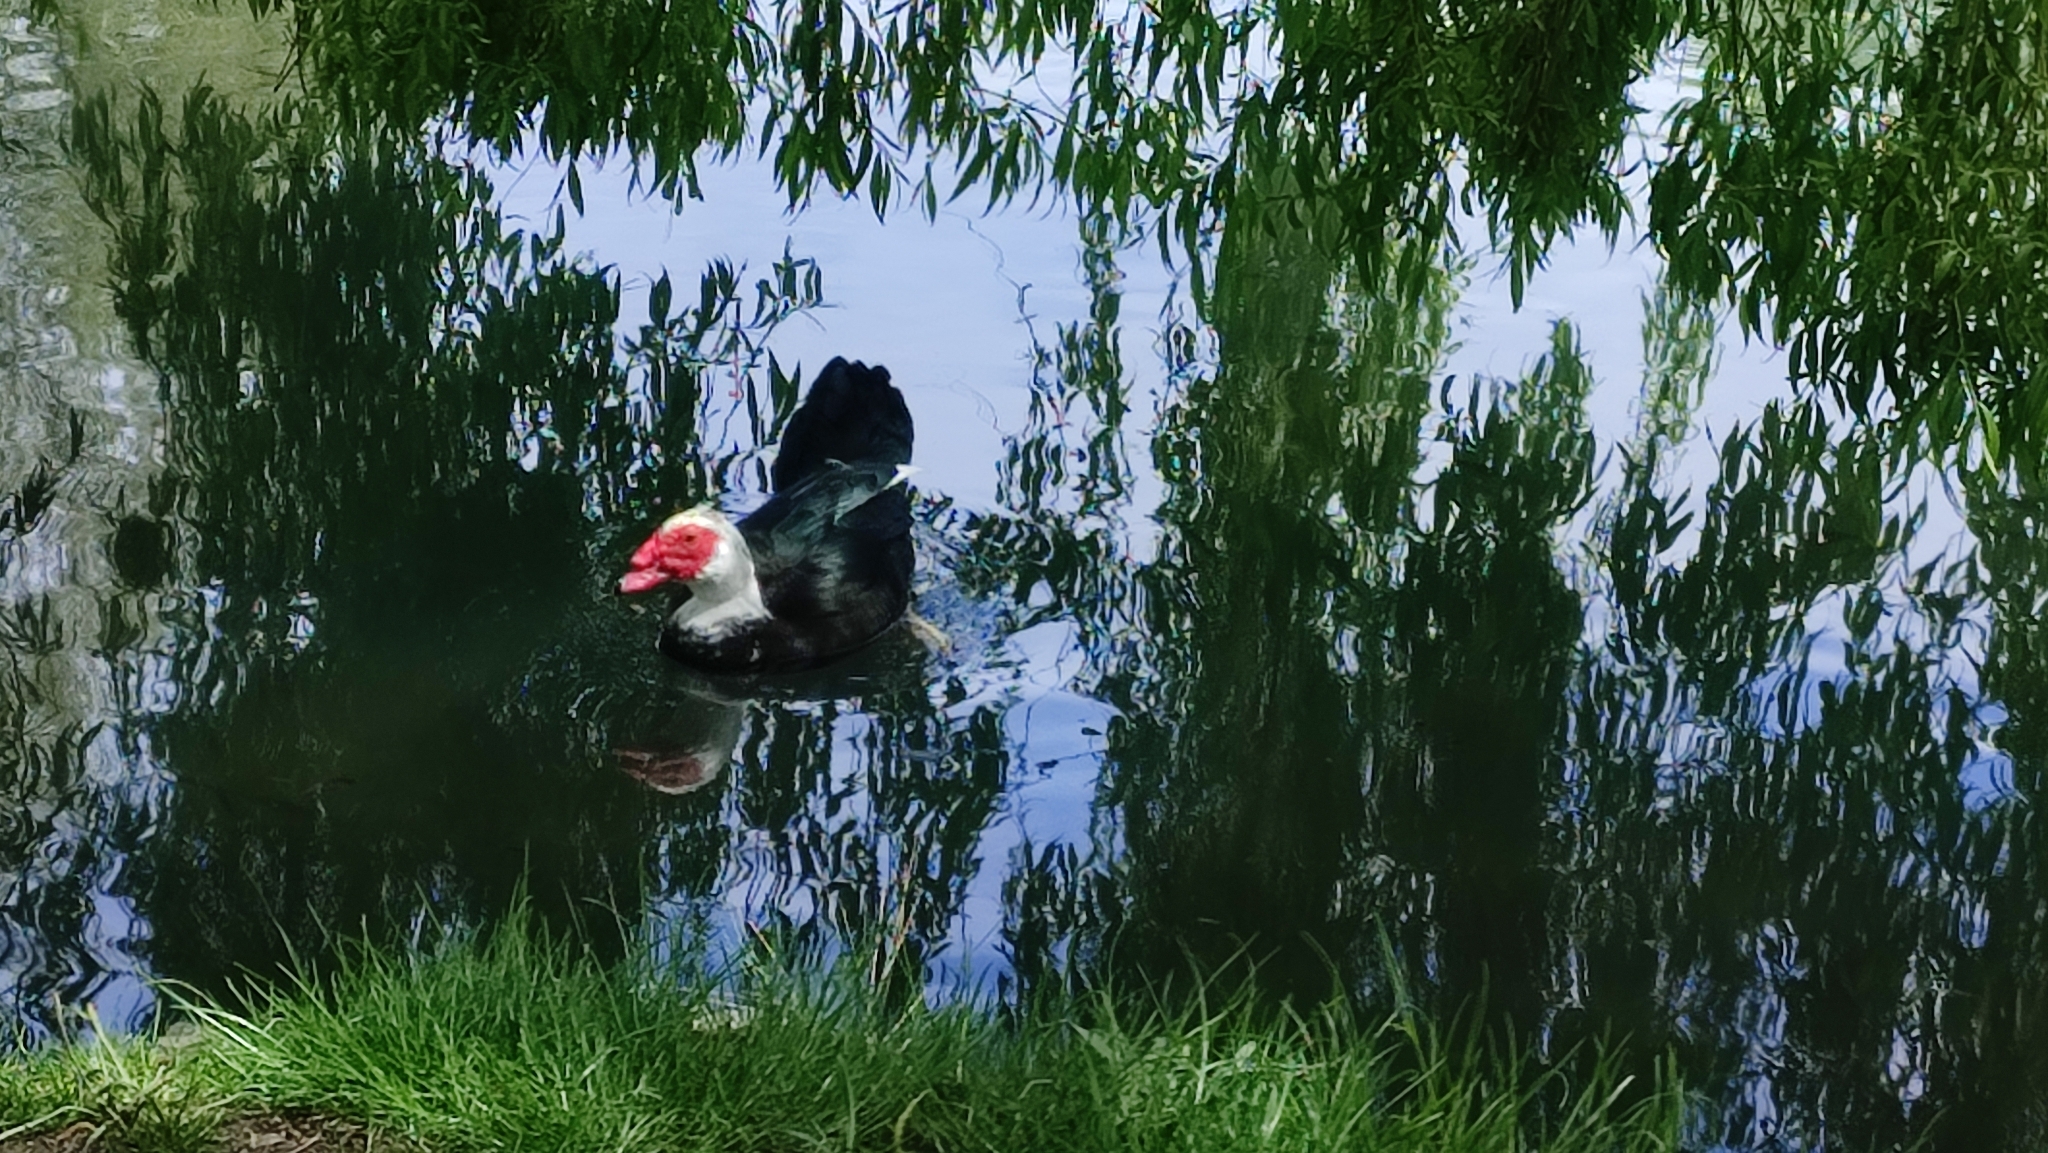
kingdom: Animalia
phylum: Chordata
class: Aves
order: Anseriformes
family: Anatidae
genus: Cairina
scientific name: Cairina moschata
